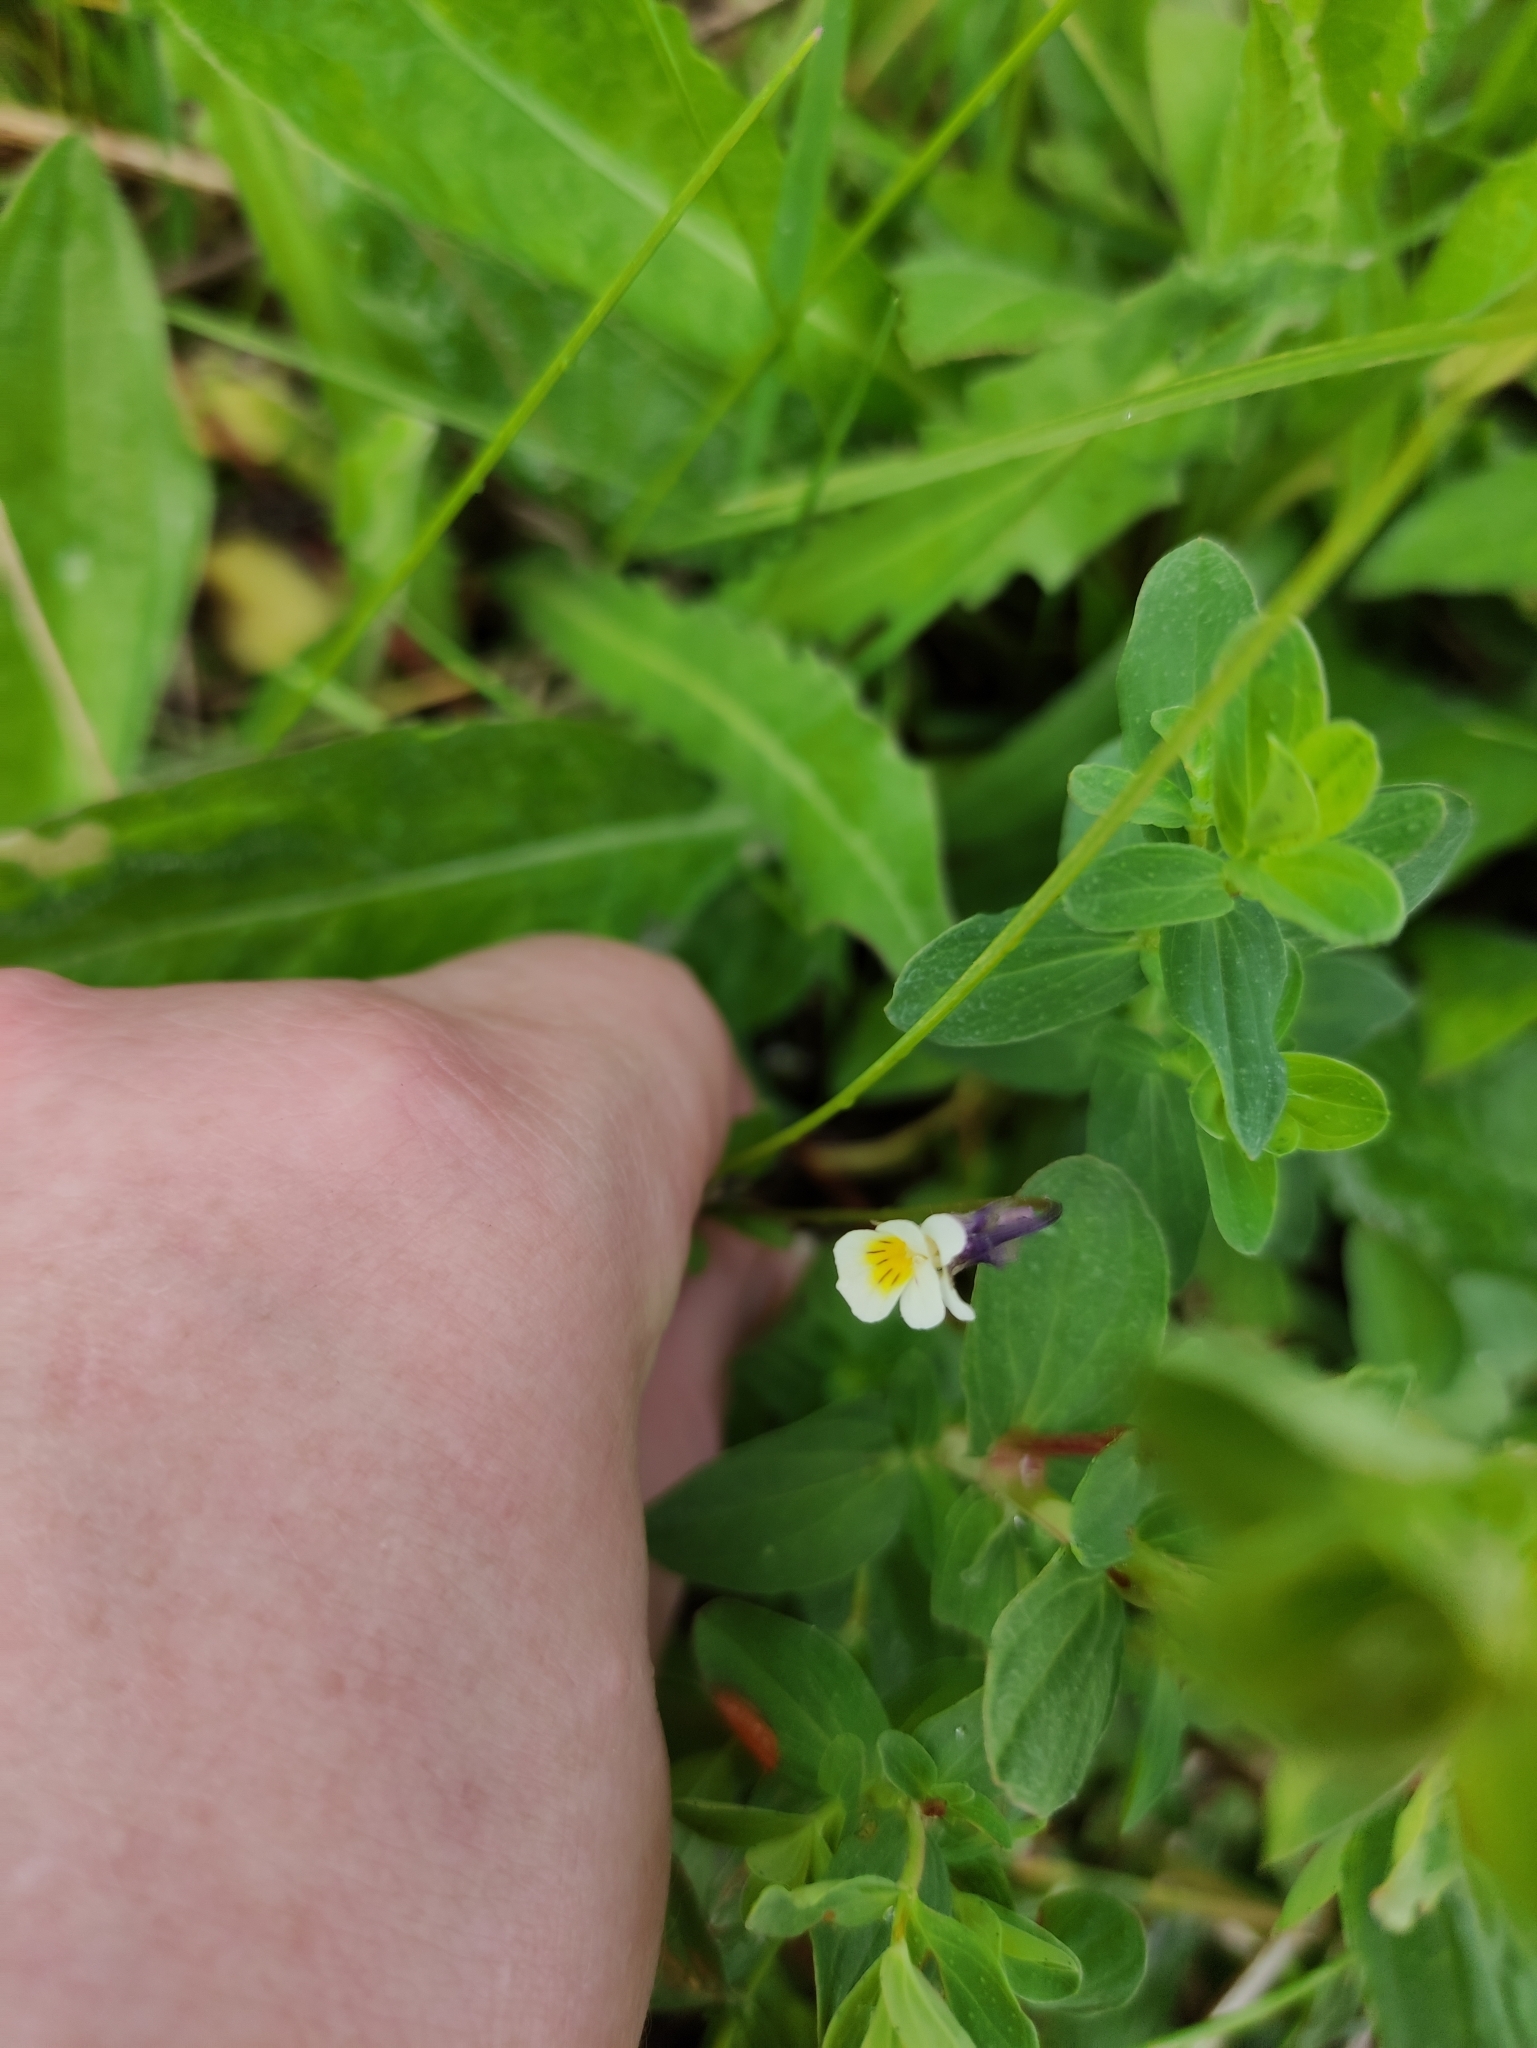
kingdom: Plantae
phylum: Tracheophyta
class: Magnoliopsida
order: Malpighiales
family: Violaceae
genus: Viola
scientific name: Viola arvensis
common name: Field pansy
